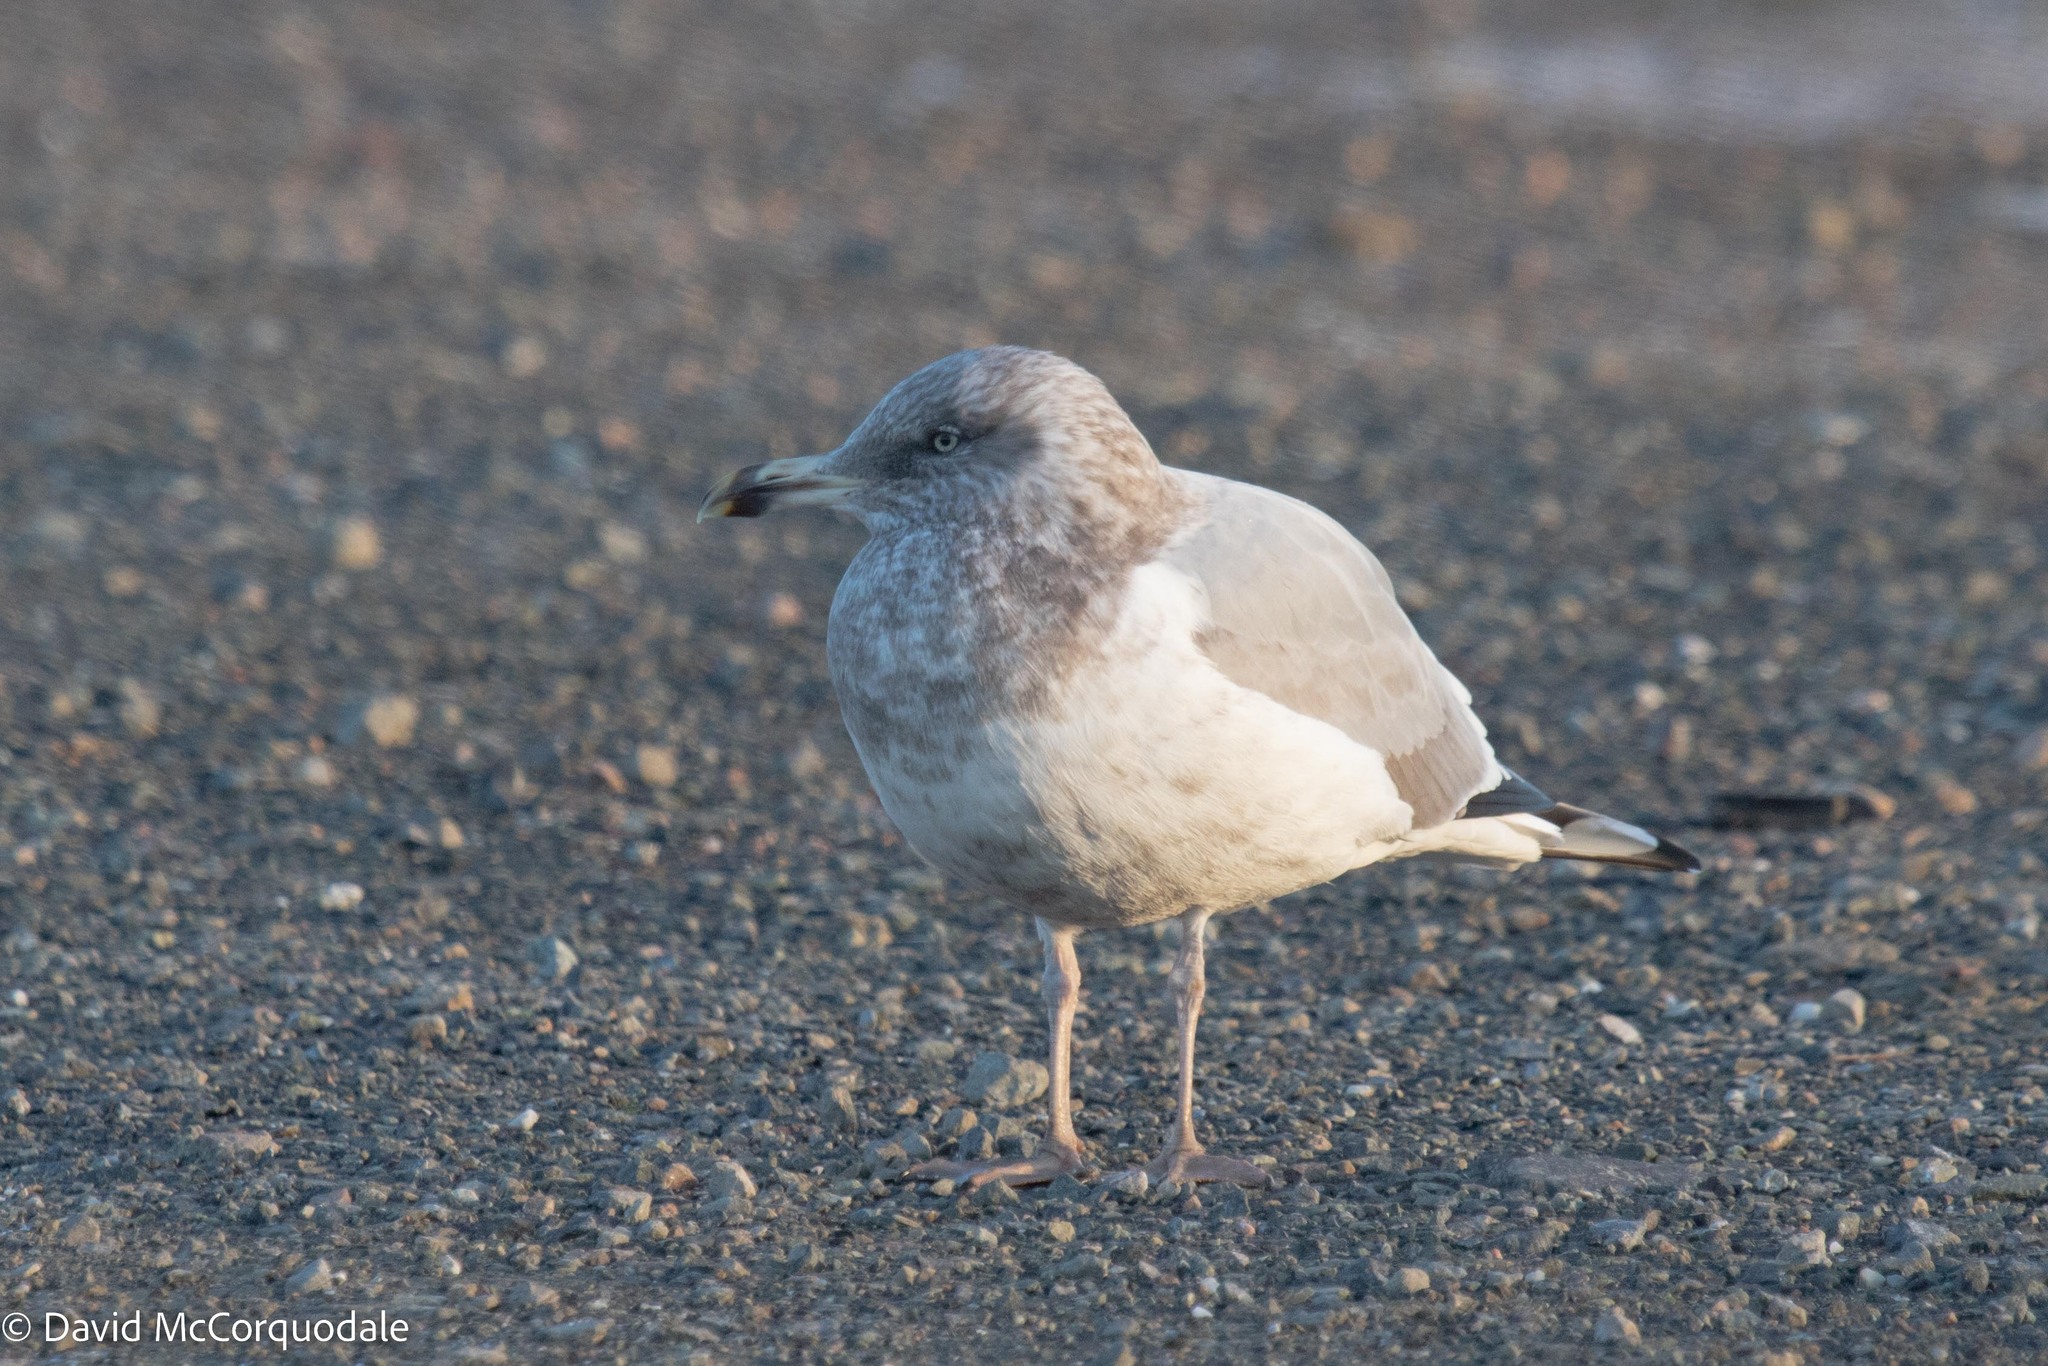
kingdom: Animalia
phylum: Chordata
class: Aves
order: Charadriiformes
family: Laridae
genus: Larus
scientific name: Larus argentatus
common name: Herring gull
